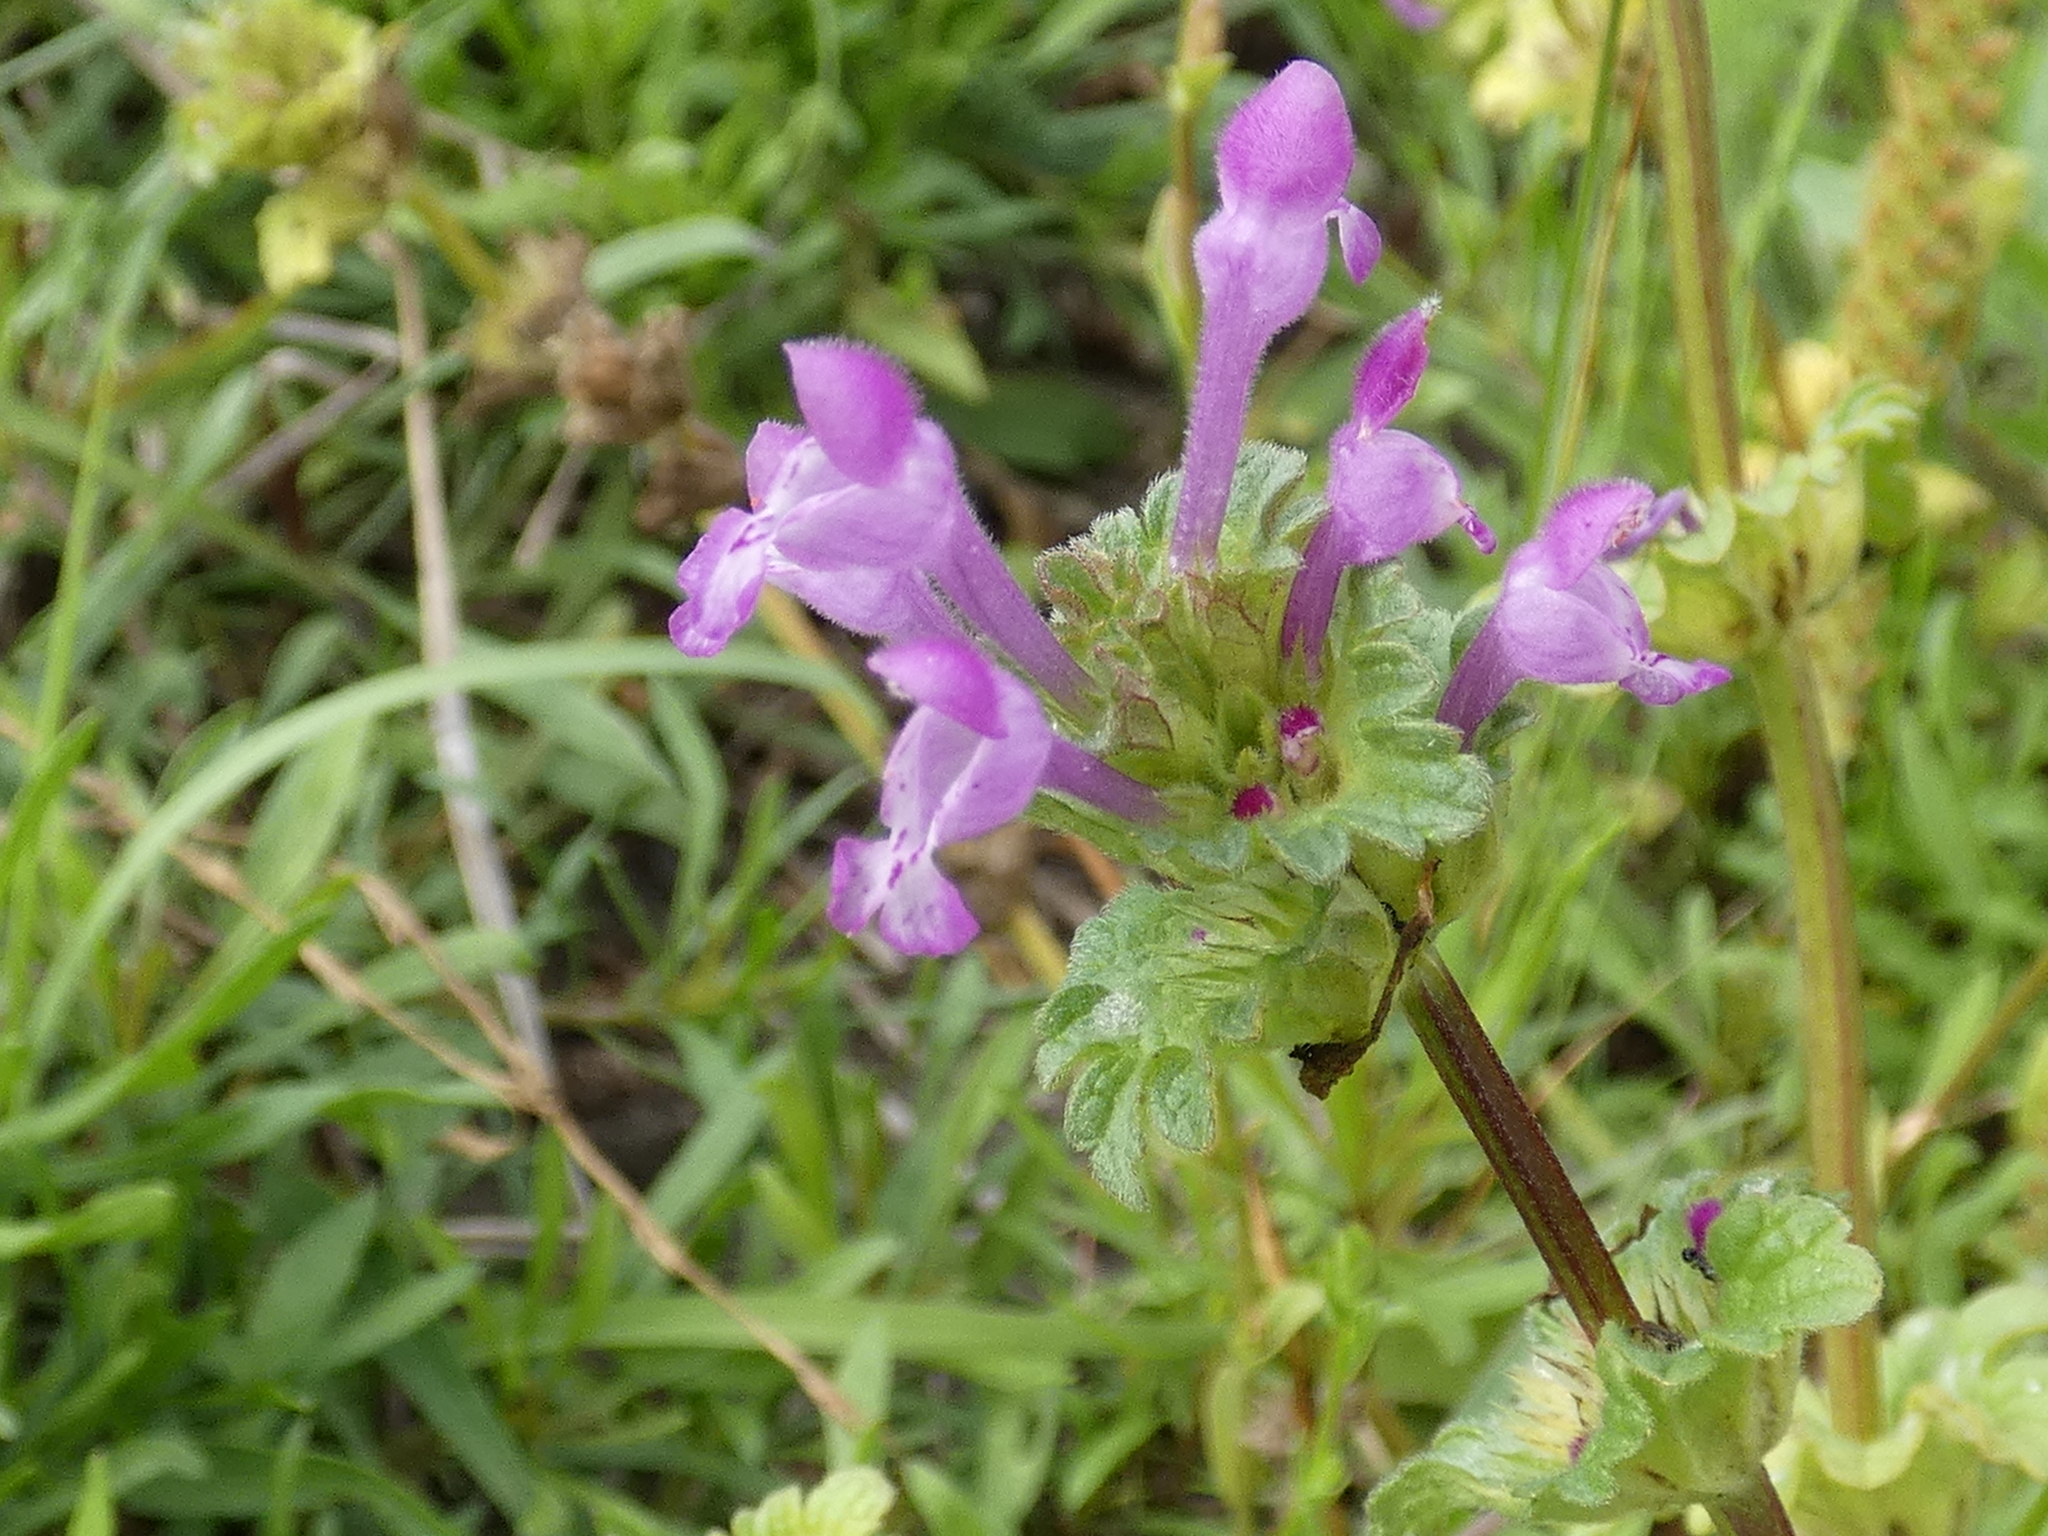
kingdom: Plantae
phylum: Tracheophyta
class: Magnoliopsida
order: Lamiales
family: Lamiaceae
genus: Lamium
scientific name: Lamium amplexicaule
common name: Henbit dead-nettle
